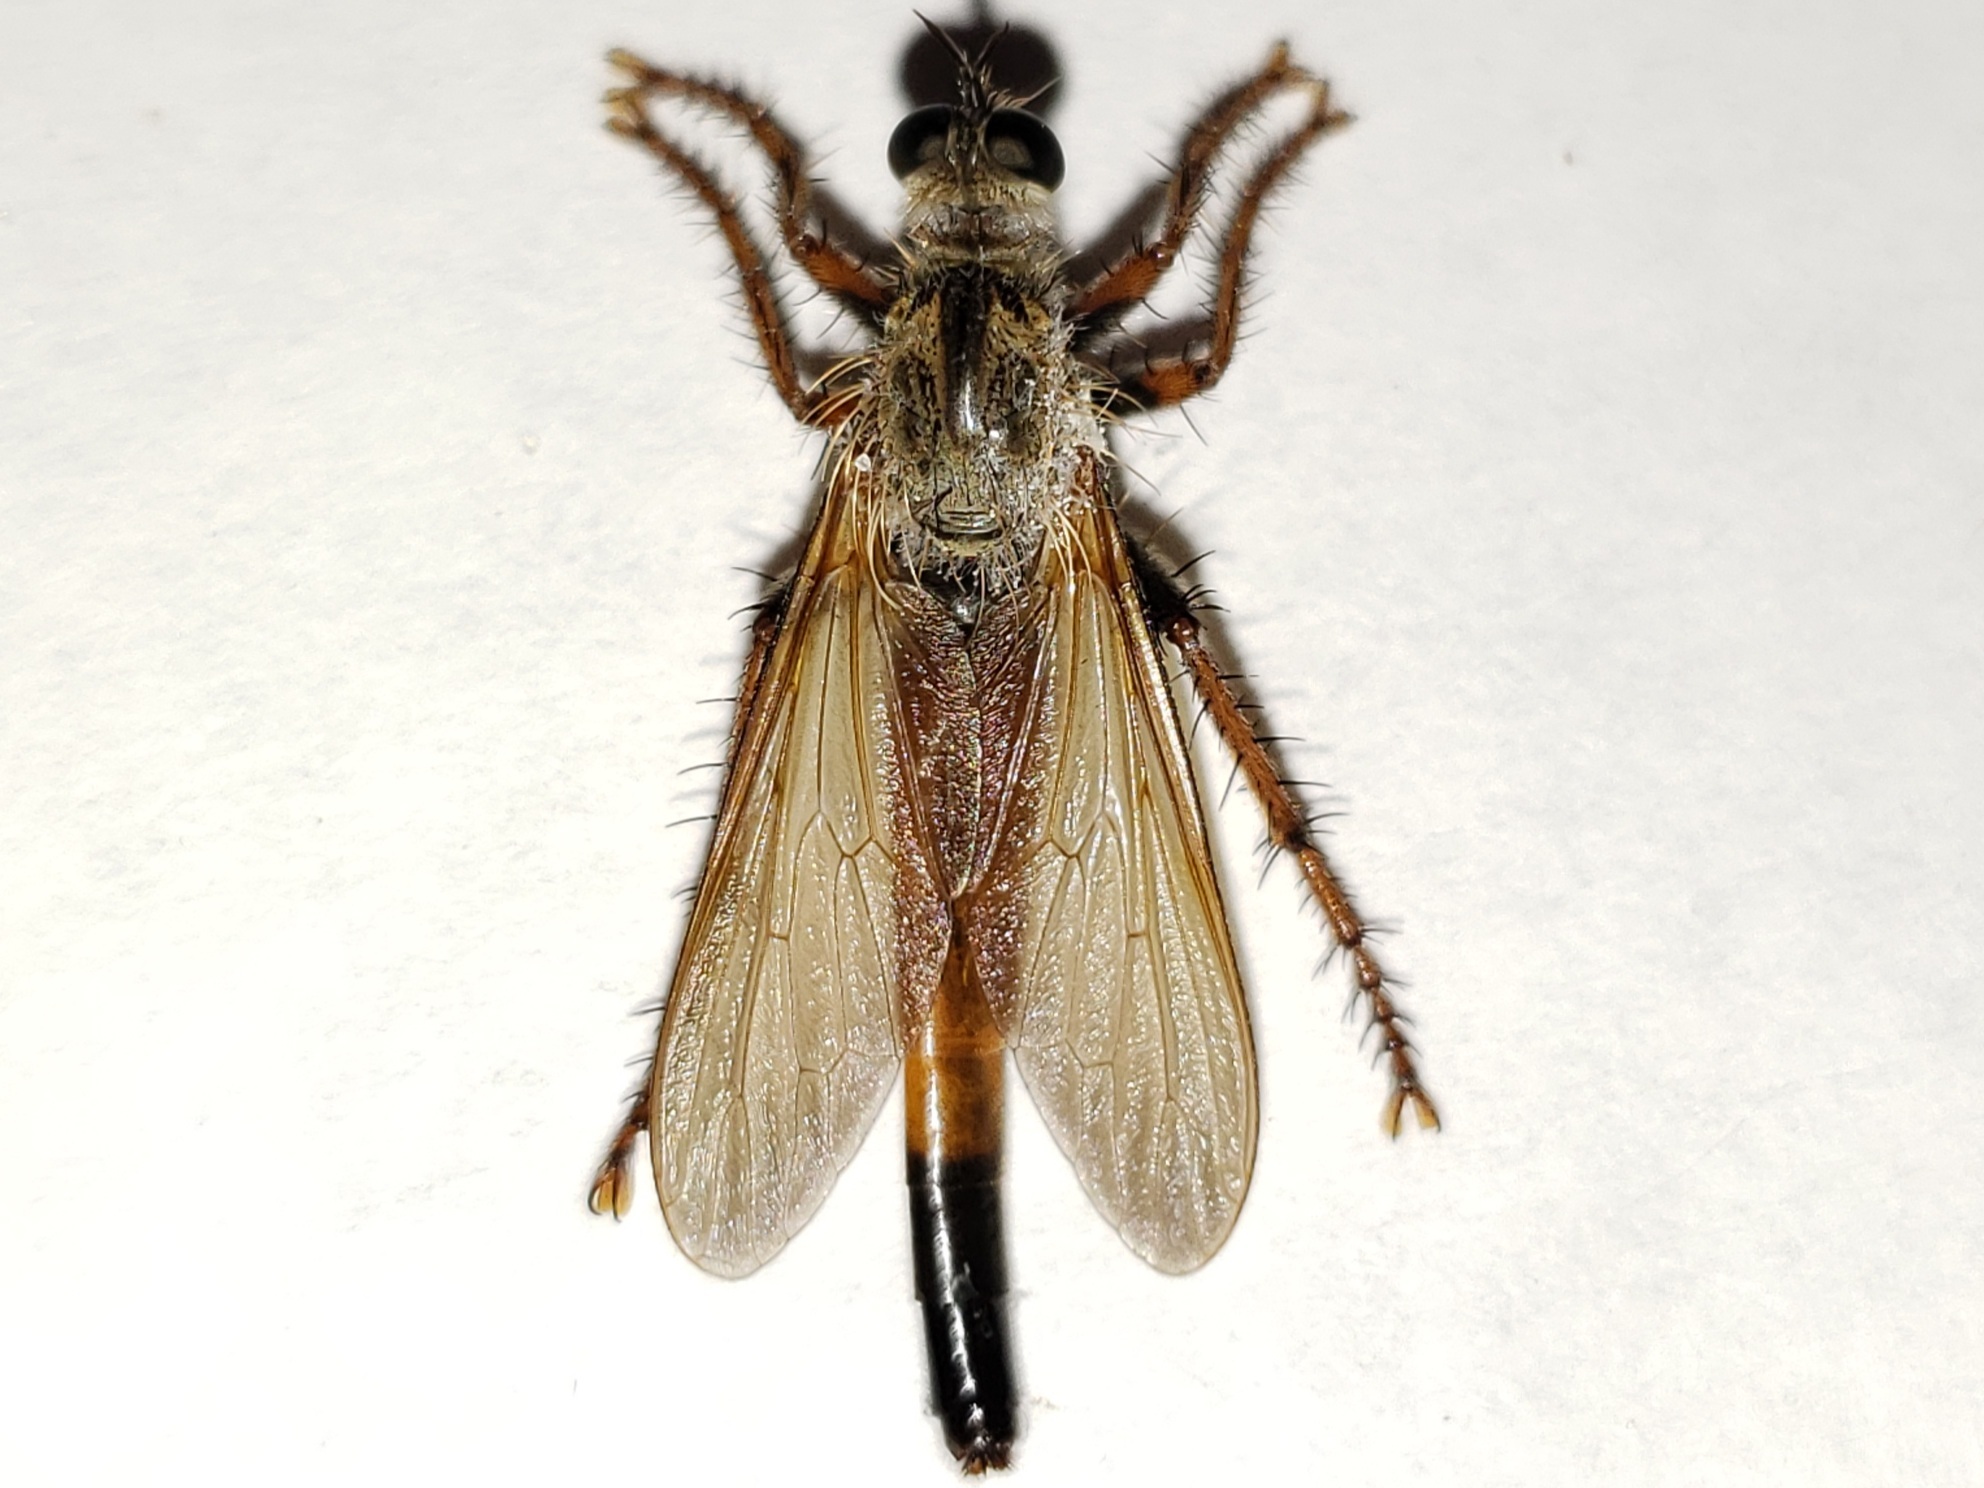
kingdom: Animalia
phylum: Arthropoda
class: Insecta
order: Diptera
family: Asilidae
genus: Scleropogon
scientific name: Scleropogon floridensis
